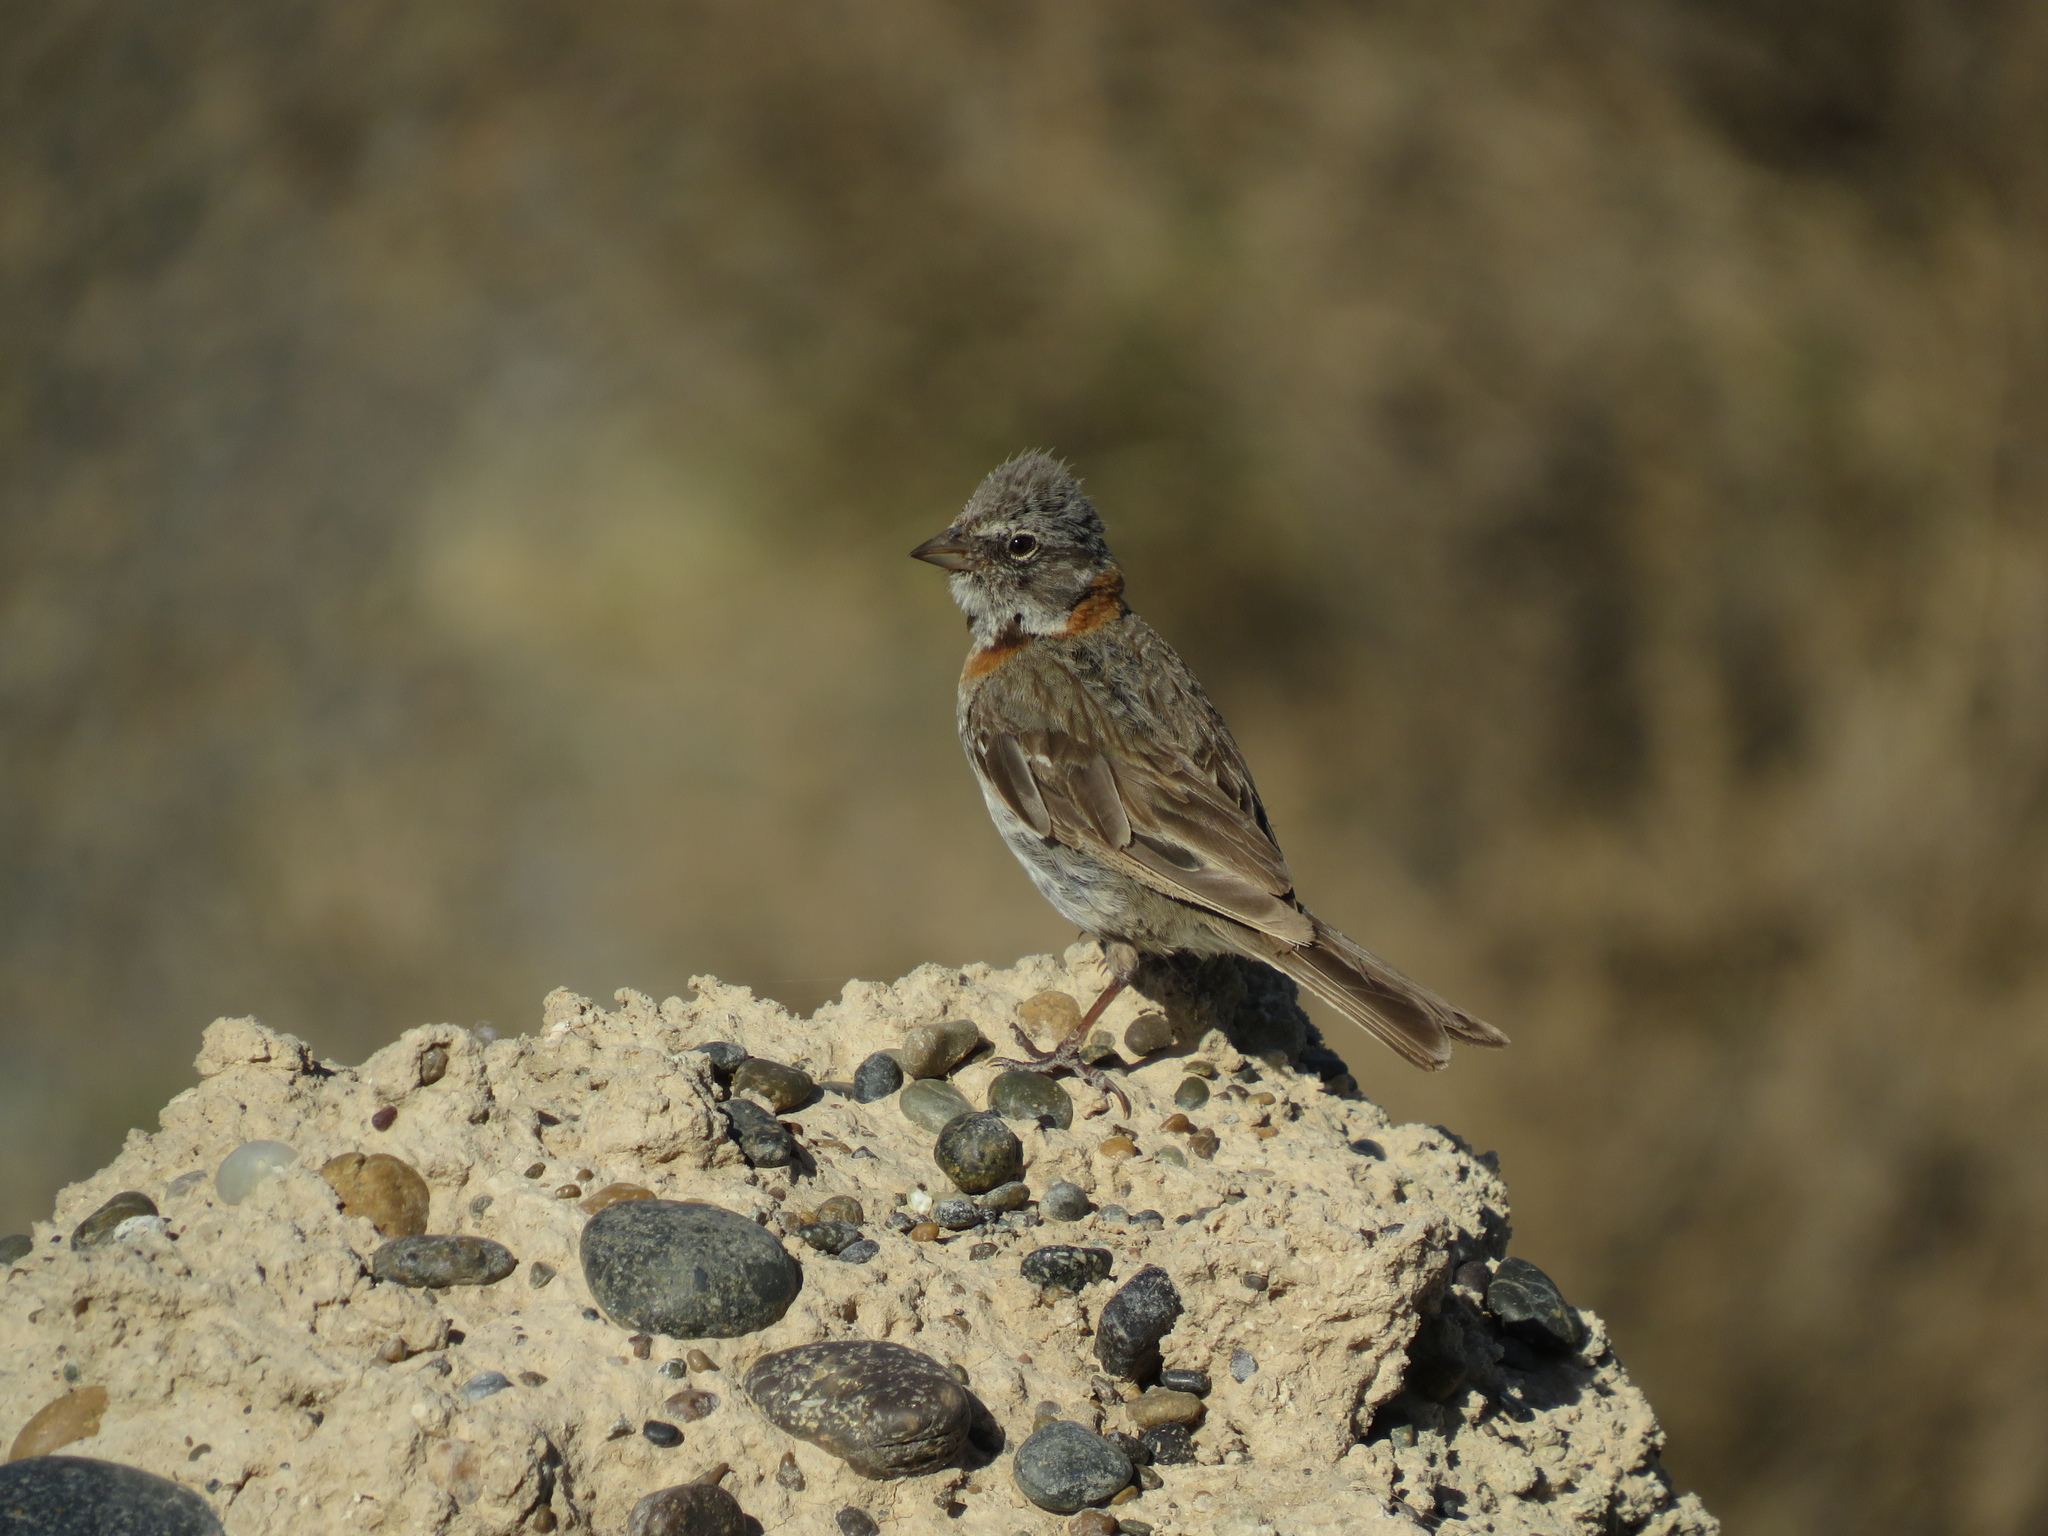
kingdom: Animalia
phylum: Chordata
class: Aves
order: Passeriformes
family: Passerellidae
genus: Zonotrichia
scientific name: Zonotrichia capensis
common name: Rufous-collared sparrow
